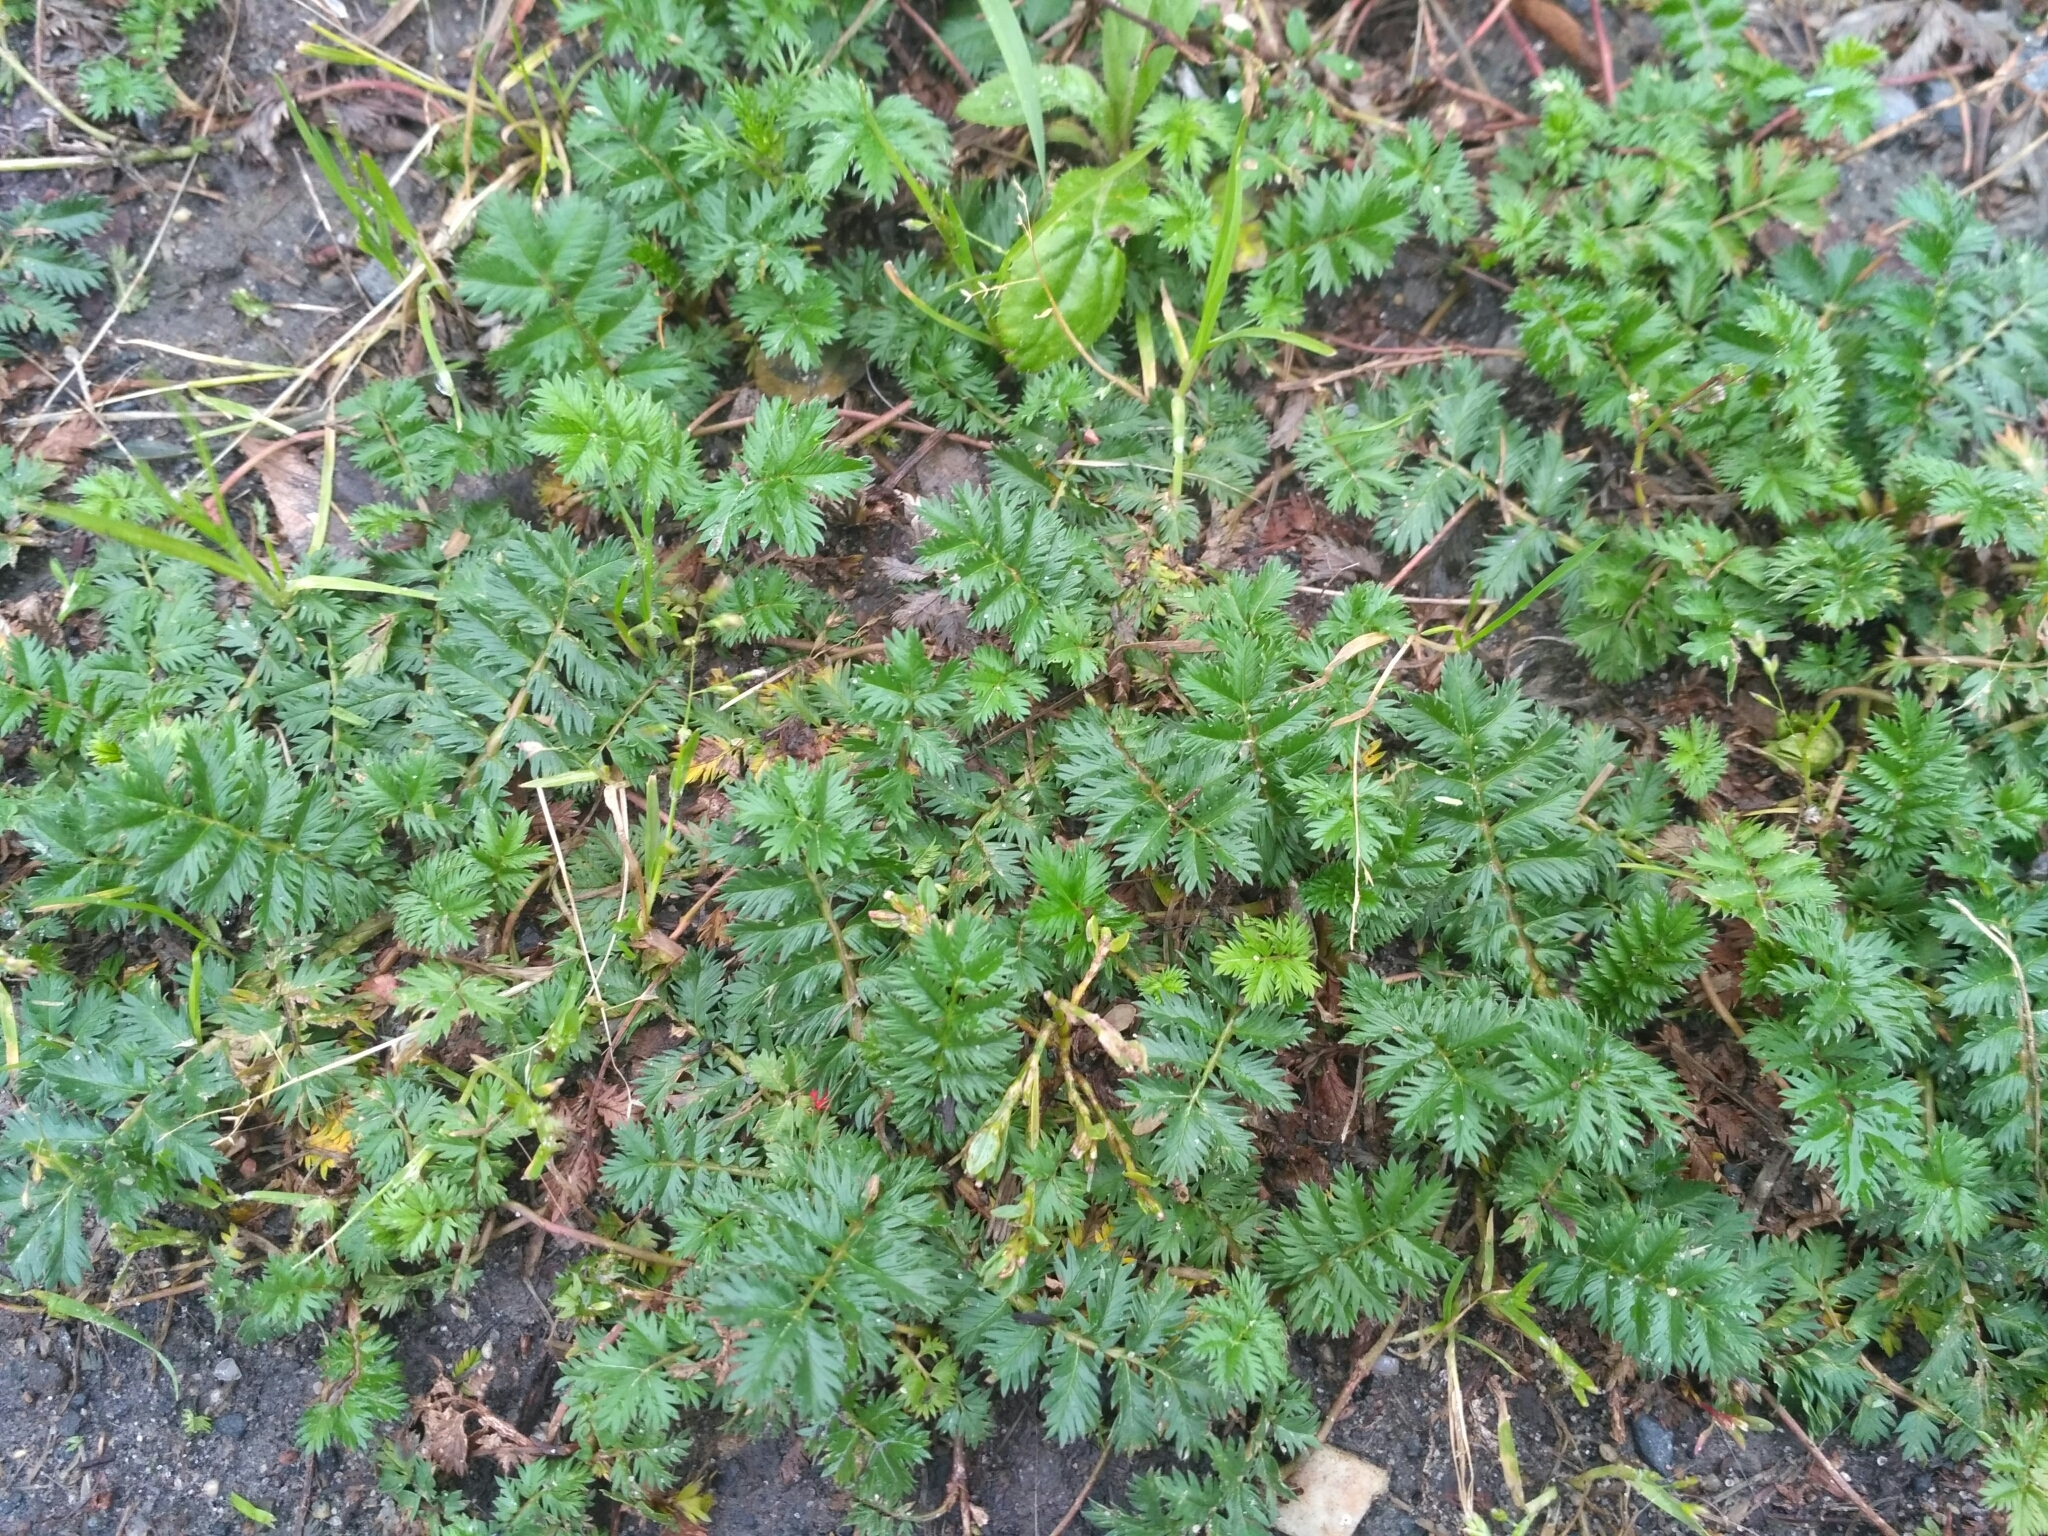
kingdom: Plantae
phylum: Tracheophyta
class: Magnoliopsida
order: Rosales
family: Rosaceae
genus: Argentina
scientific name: Argentina anserina
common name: Common silverweed
